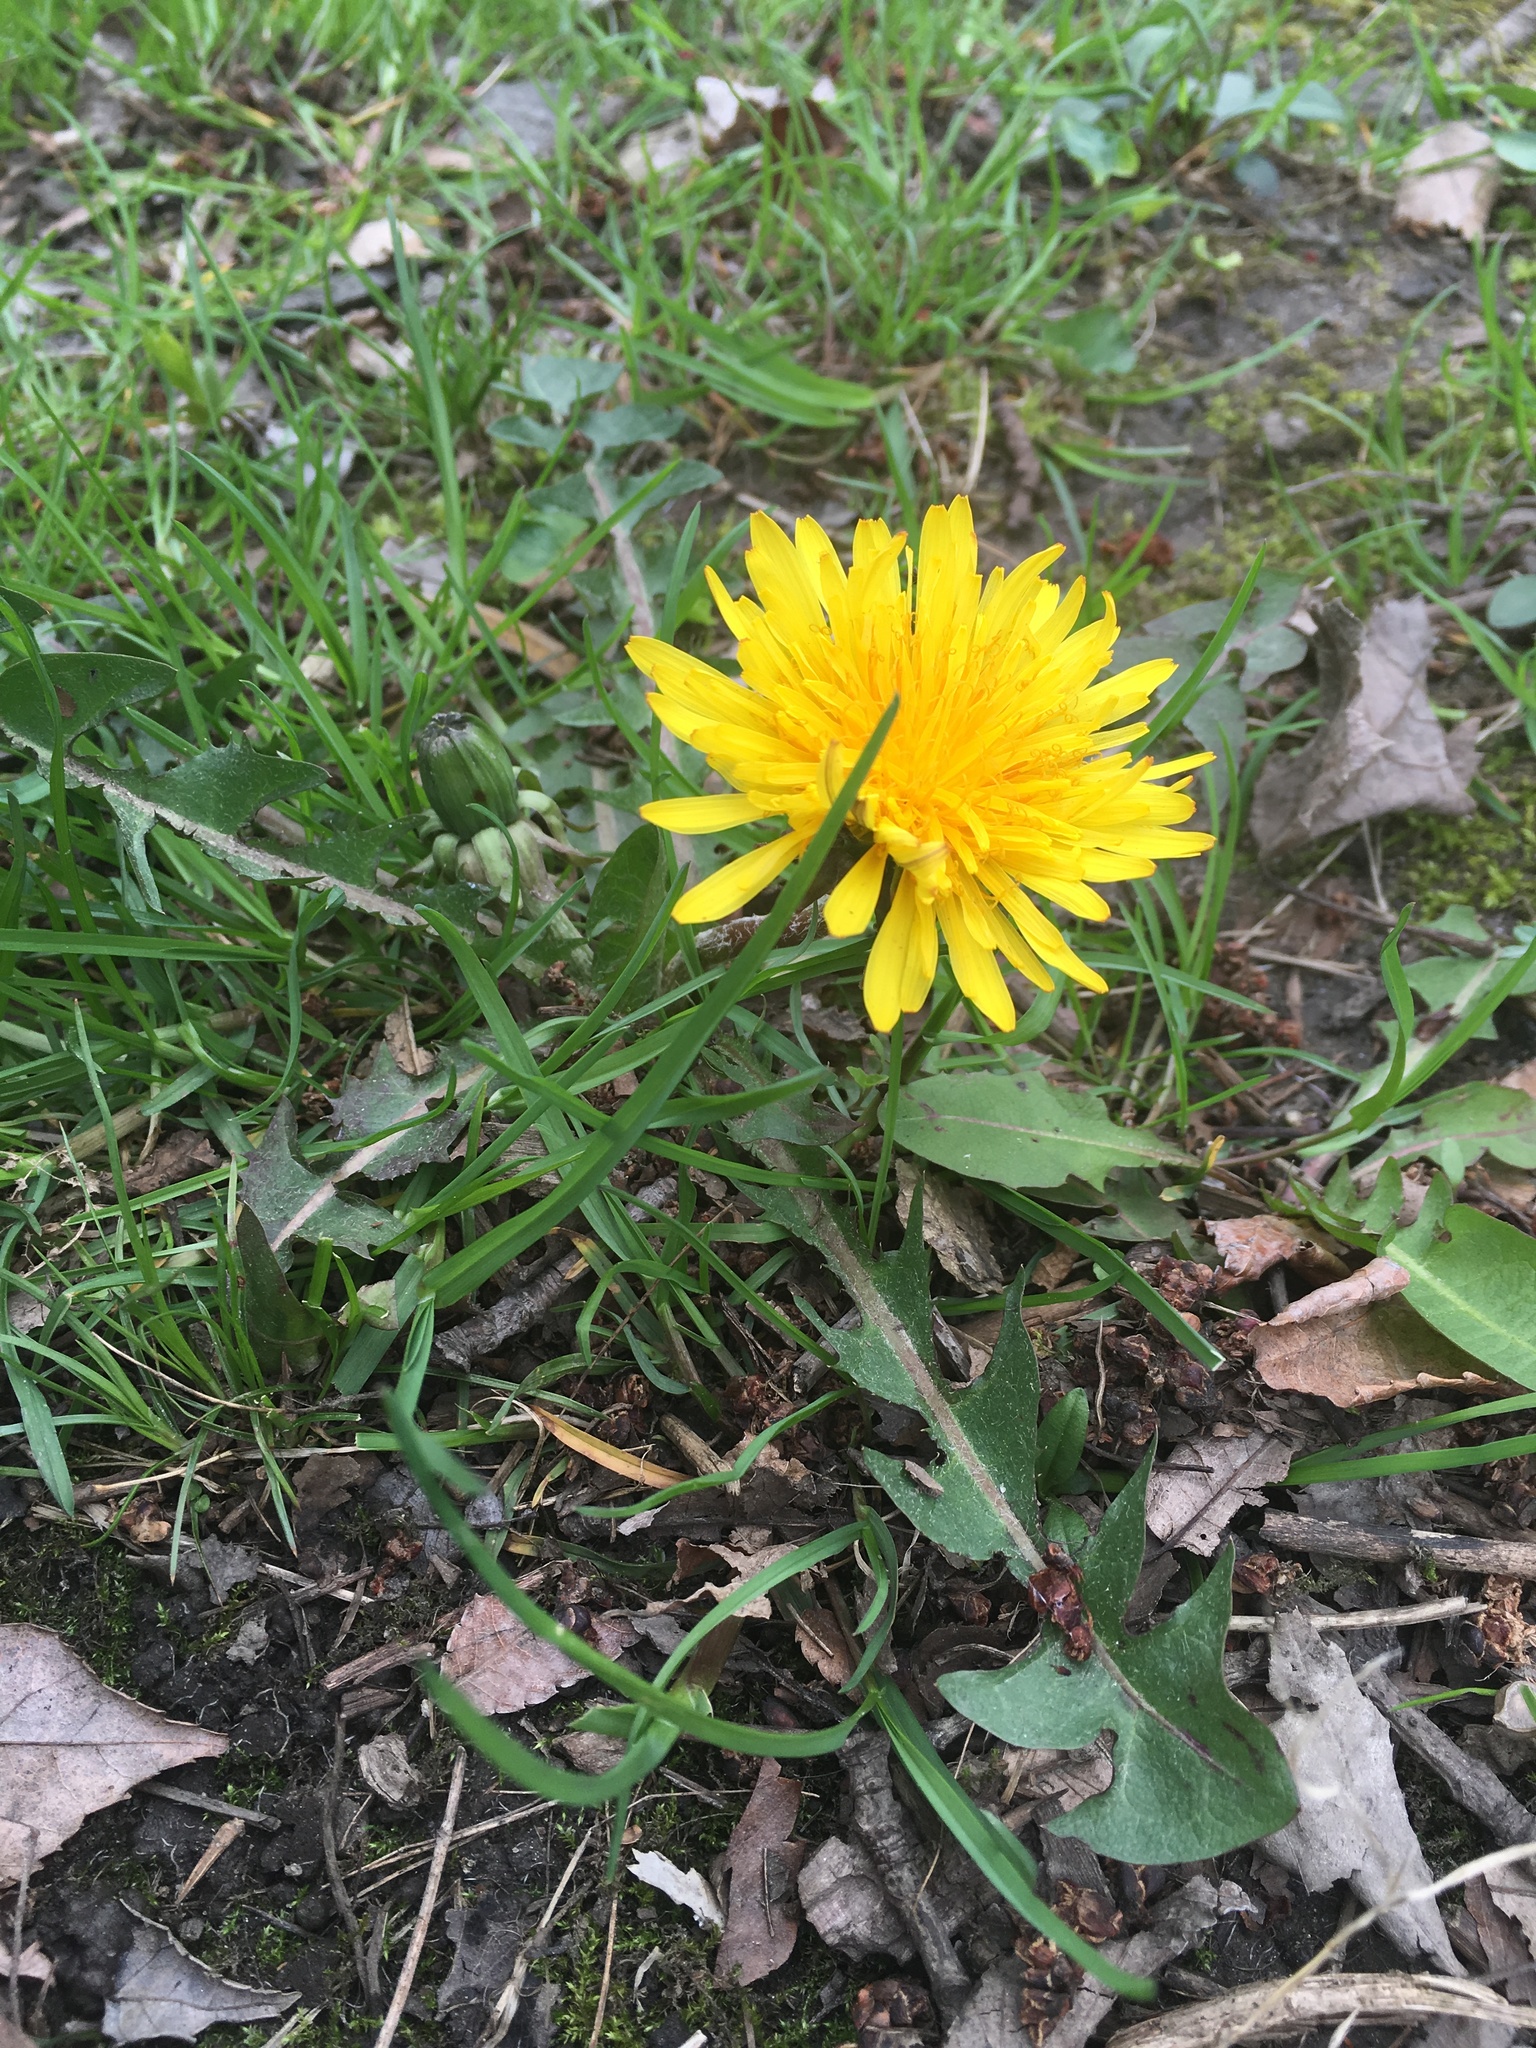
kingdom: Plantae
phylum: Tracheophyta
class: Magnoliopsida
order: Asterales
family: Asteraceae
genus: Taraxacum
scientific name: Taraxacum officinale
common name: Common dandelion
